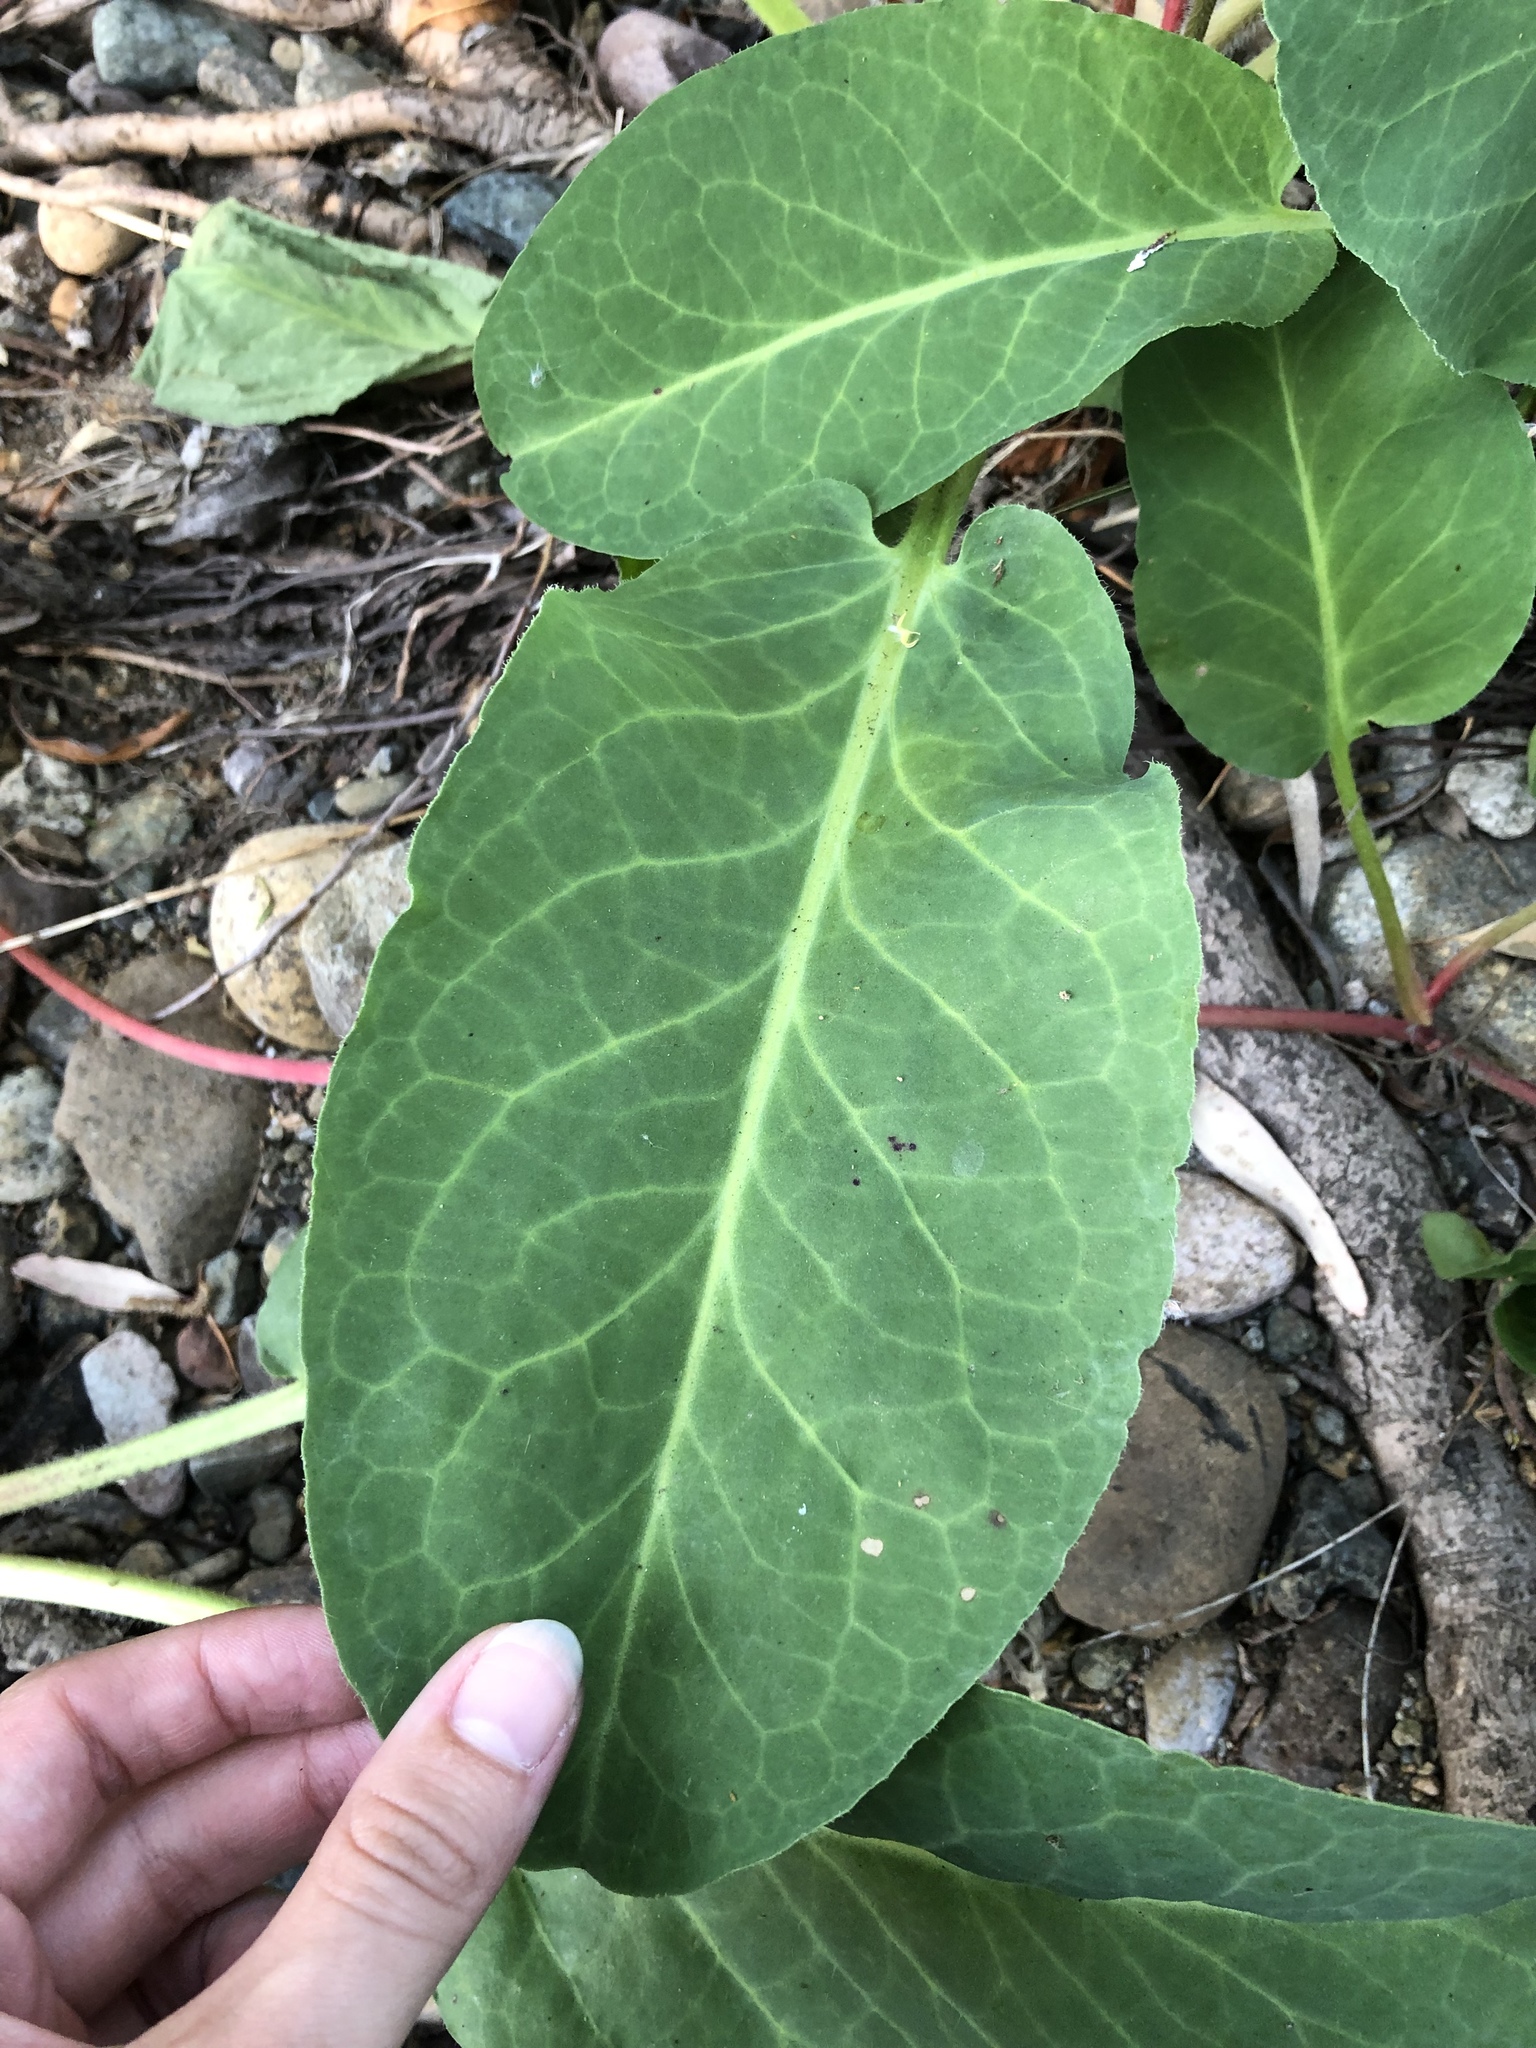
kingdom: Plantae
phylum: Tracheophyta
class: Magnoliopsida
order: Piperales
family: Saururaceae
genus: Anemopsis
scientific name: Anemopsis californica
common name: Apache-beads
